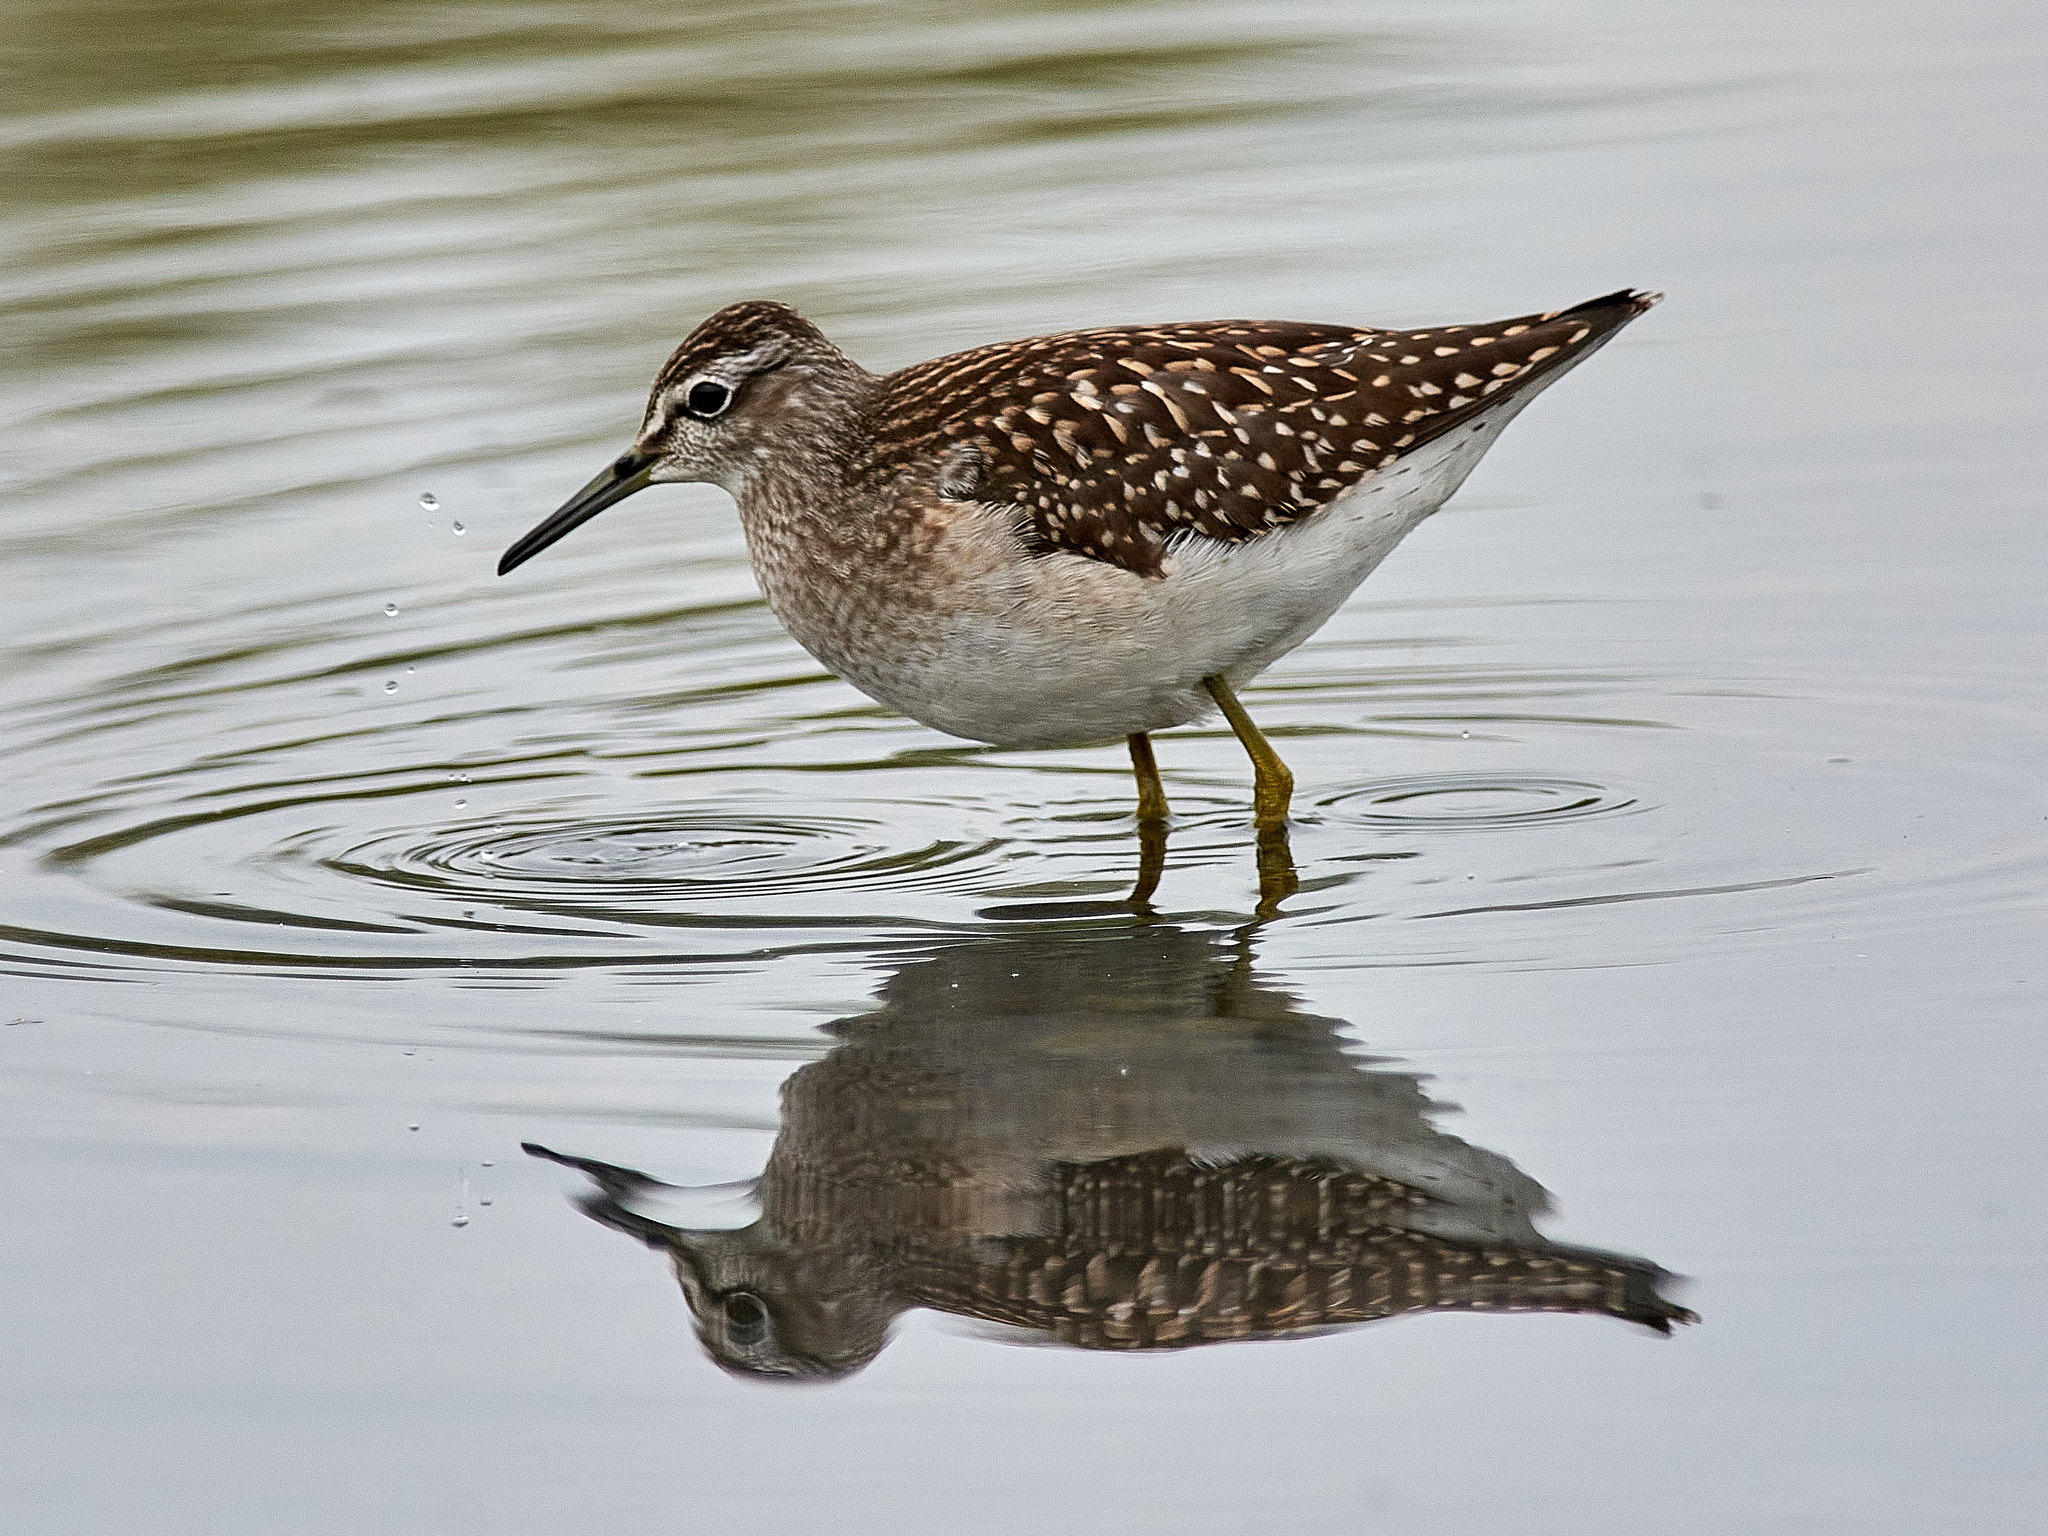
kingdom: Animalia
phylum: Chordata
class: Aves
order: Charadriiformes
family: Scolopacidae
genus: Tringa
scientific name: Tringa glareola
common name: Wood sandpiper
